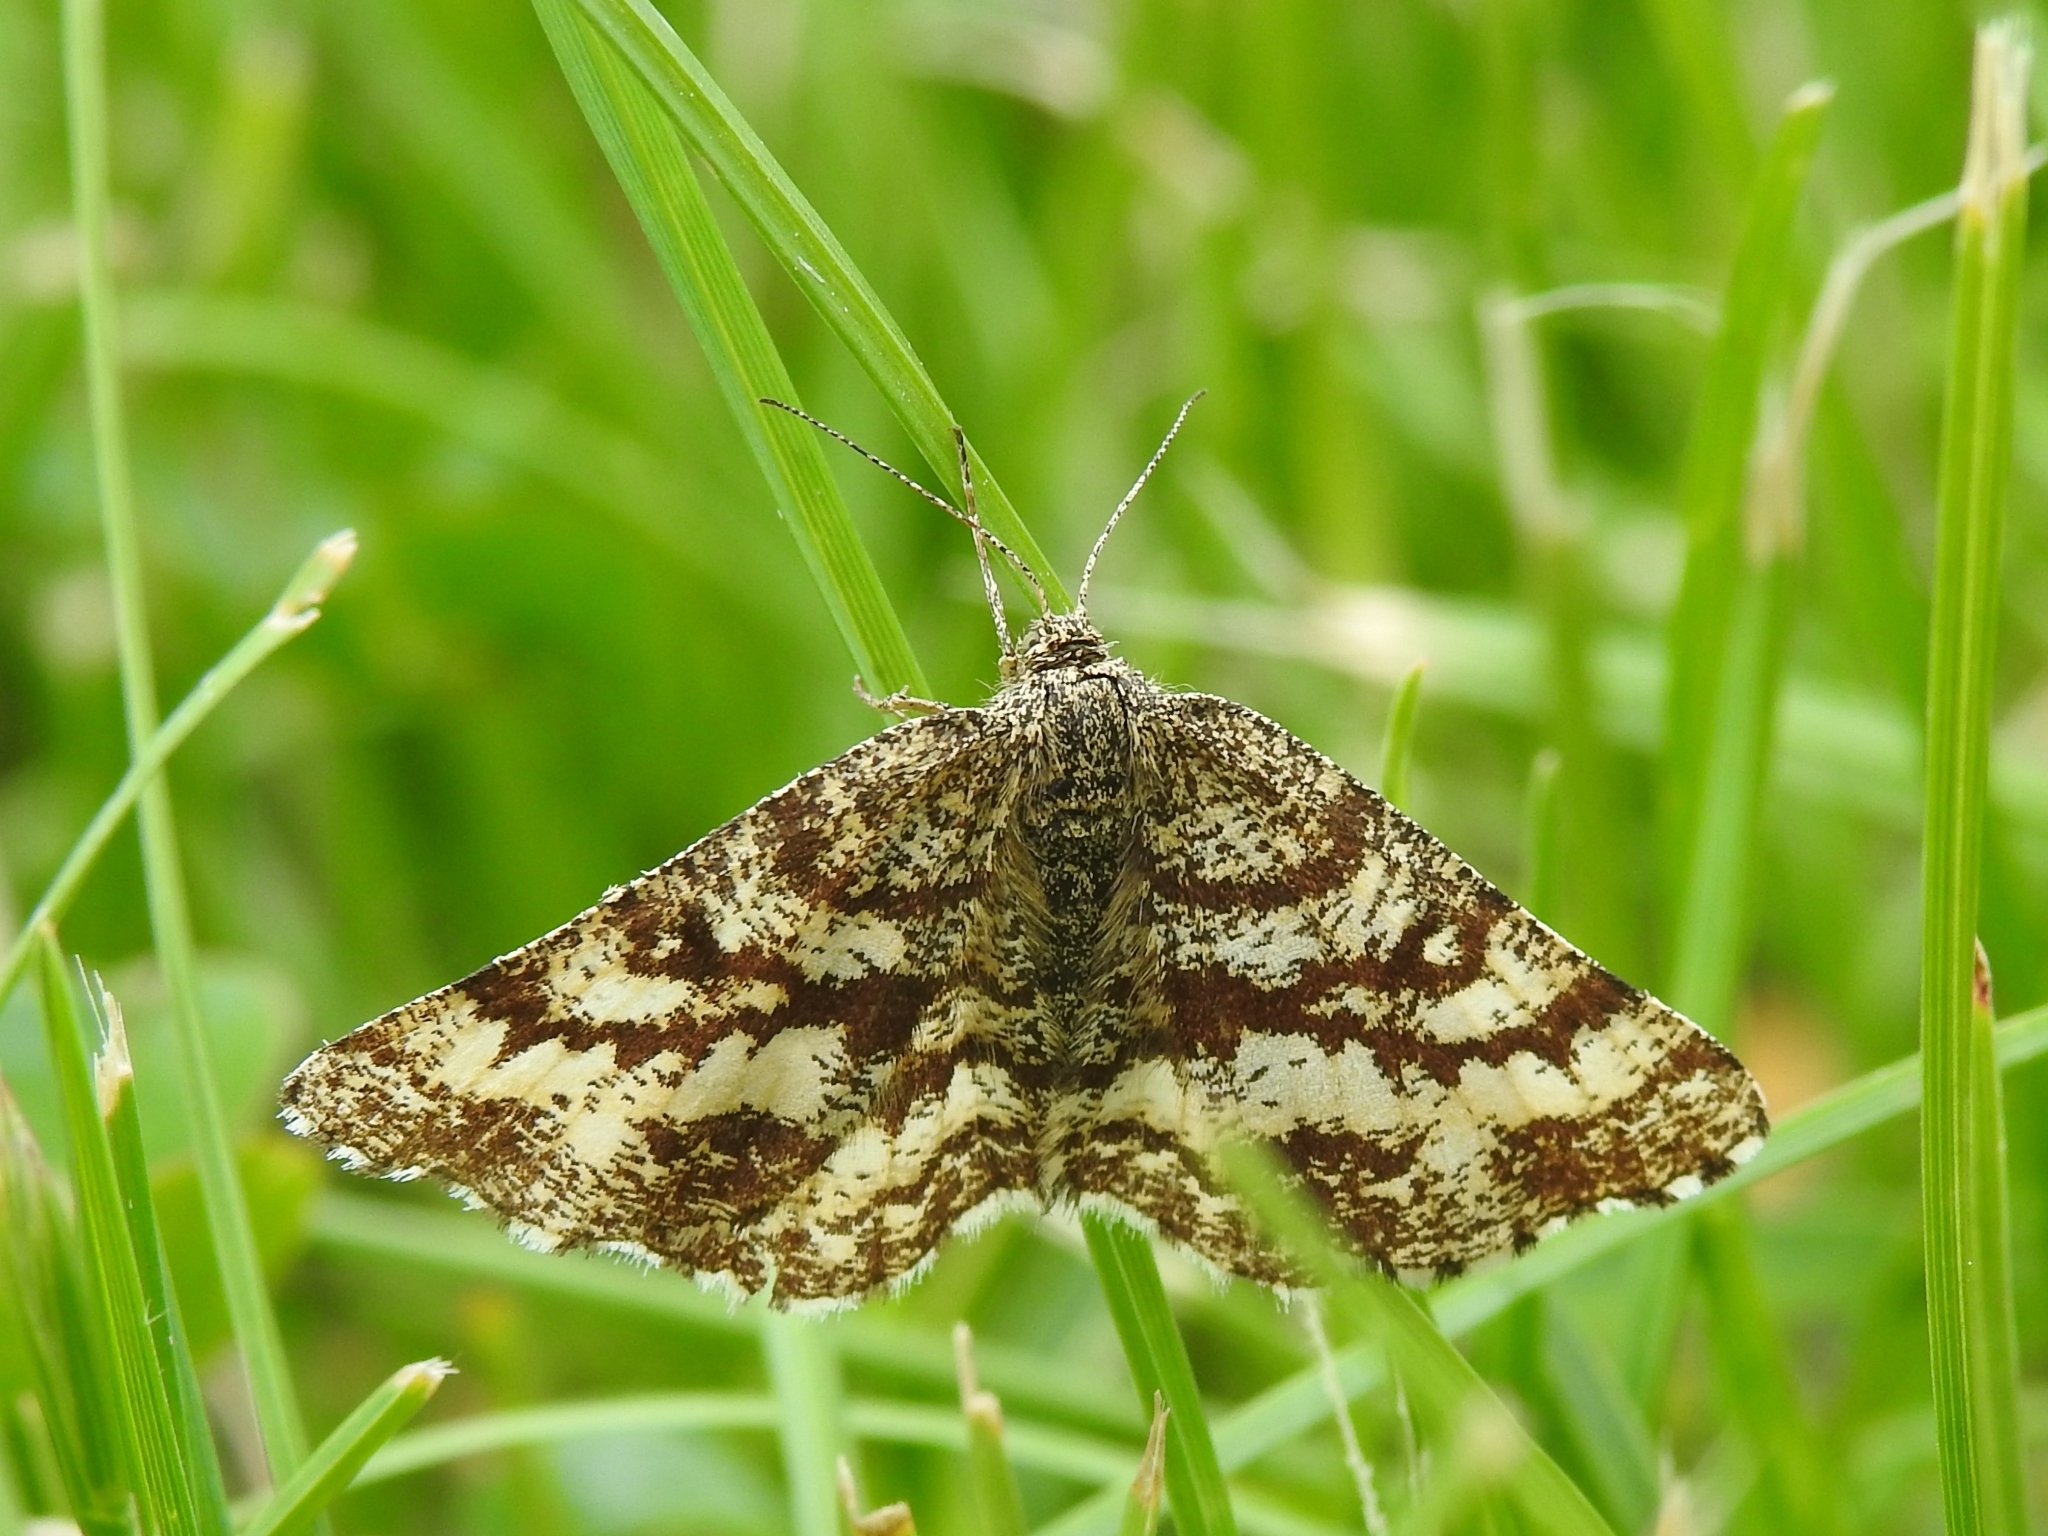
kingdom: Animalia
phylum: Arthropoda
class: Insecta
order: Lepidoptera
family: Geometridae
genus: Ematurga
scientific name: Ematurga atomaria
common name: Common heath
